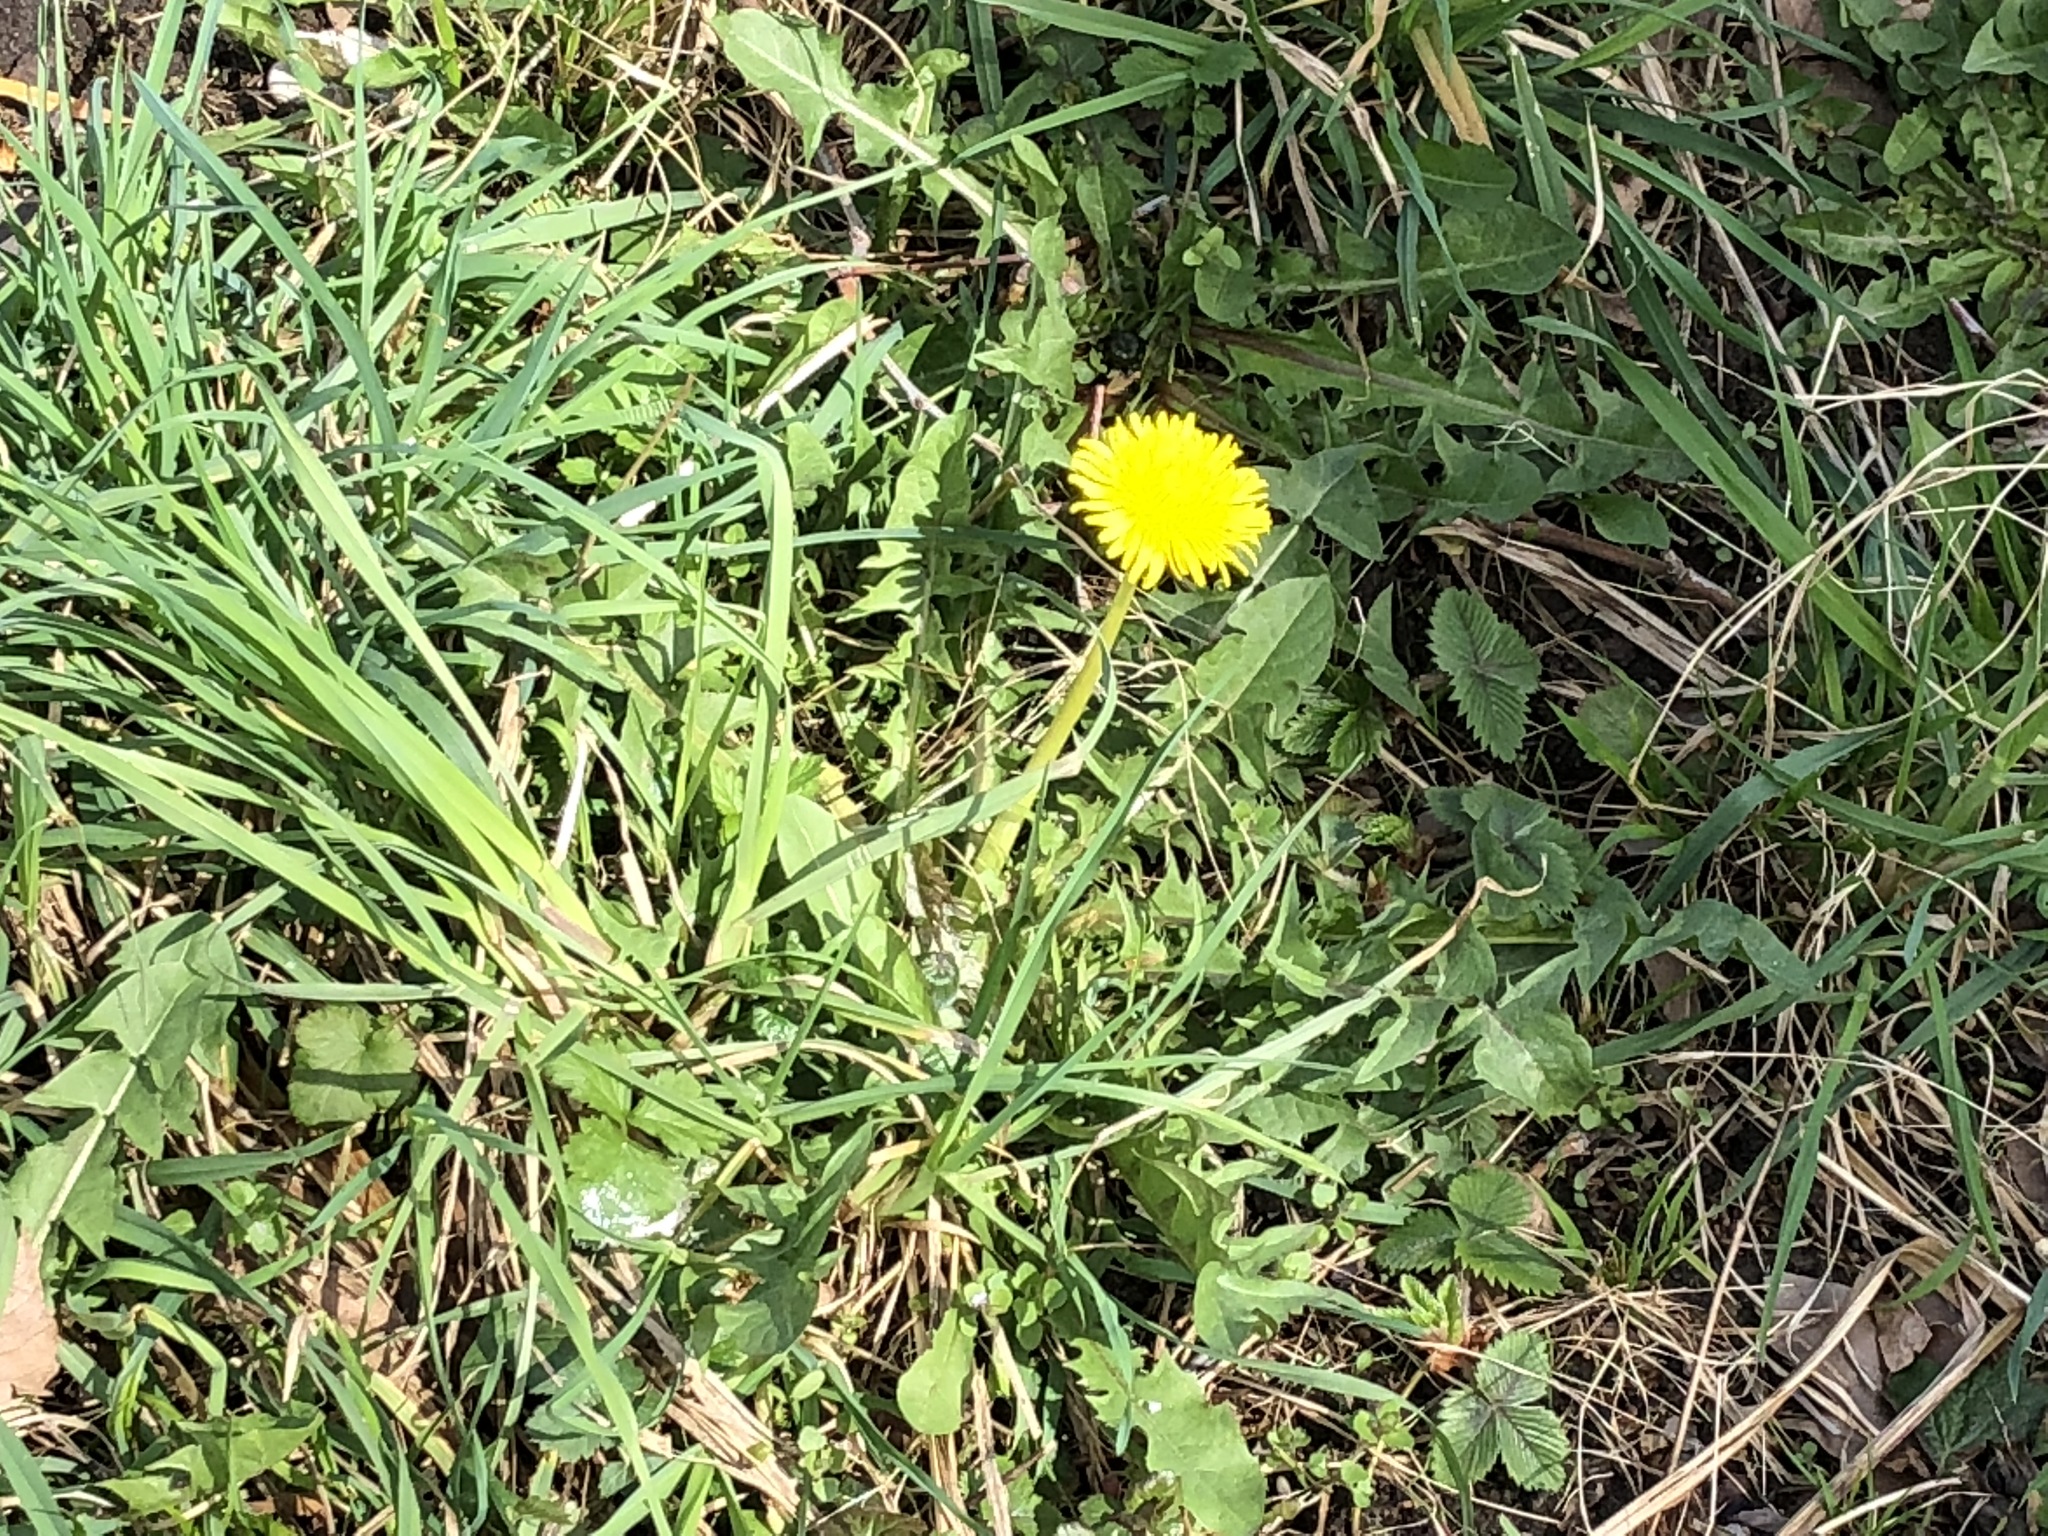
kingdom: Plantae
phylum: Tracheophyta
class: Magnoliopsida
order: Asterales
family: Asteraceae
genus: Taraxacum
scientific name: Taraxacum officinale
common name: Common dandelion
